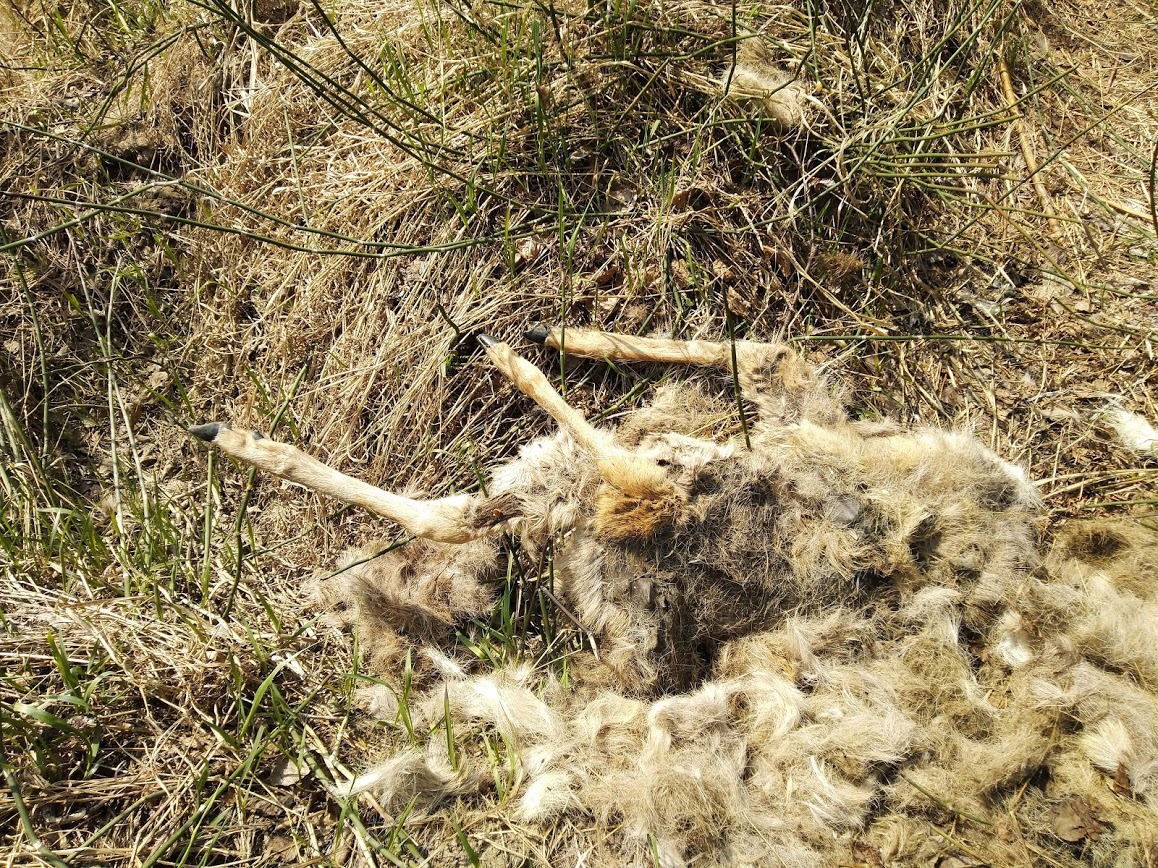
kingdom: Animalia
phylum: Chordata
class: Mammalia
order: Artiodactyla
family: Cervidae
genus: Capreolus
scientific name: Capreolus pygargus
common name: Siberian roe
